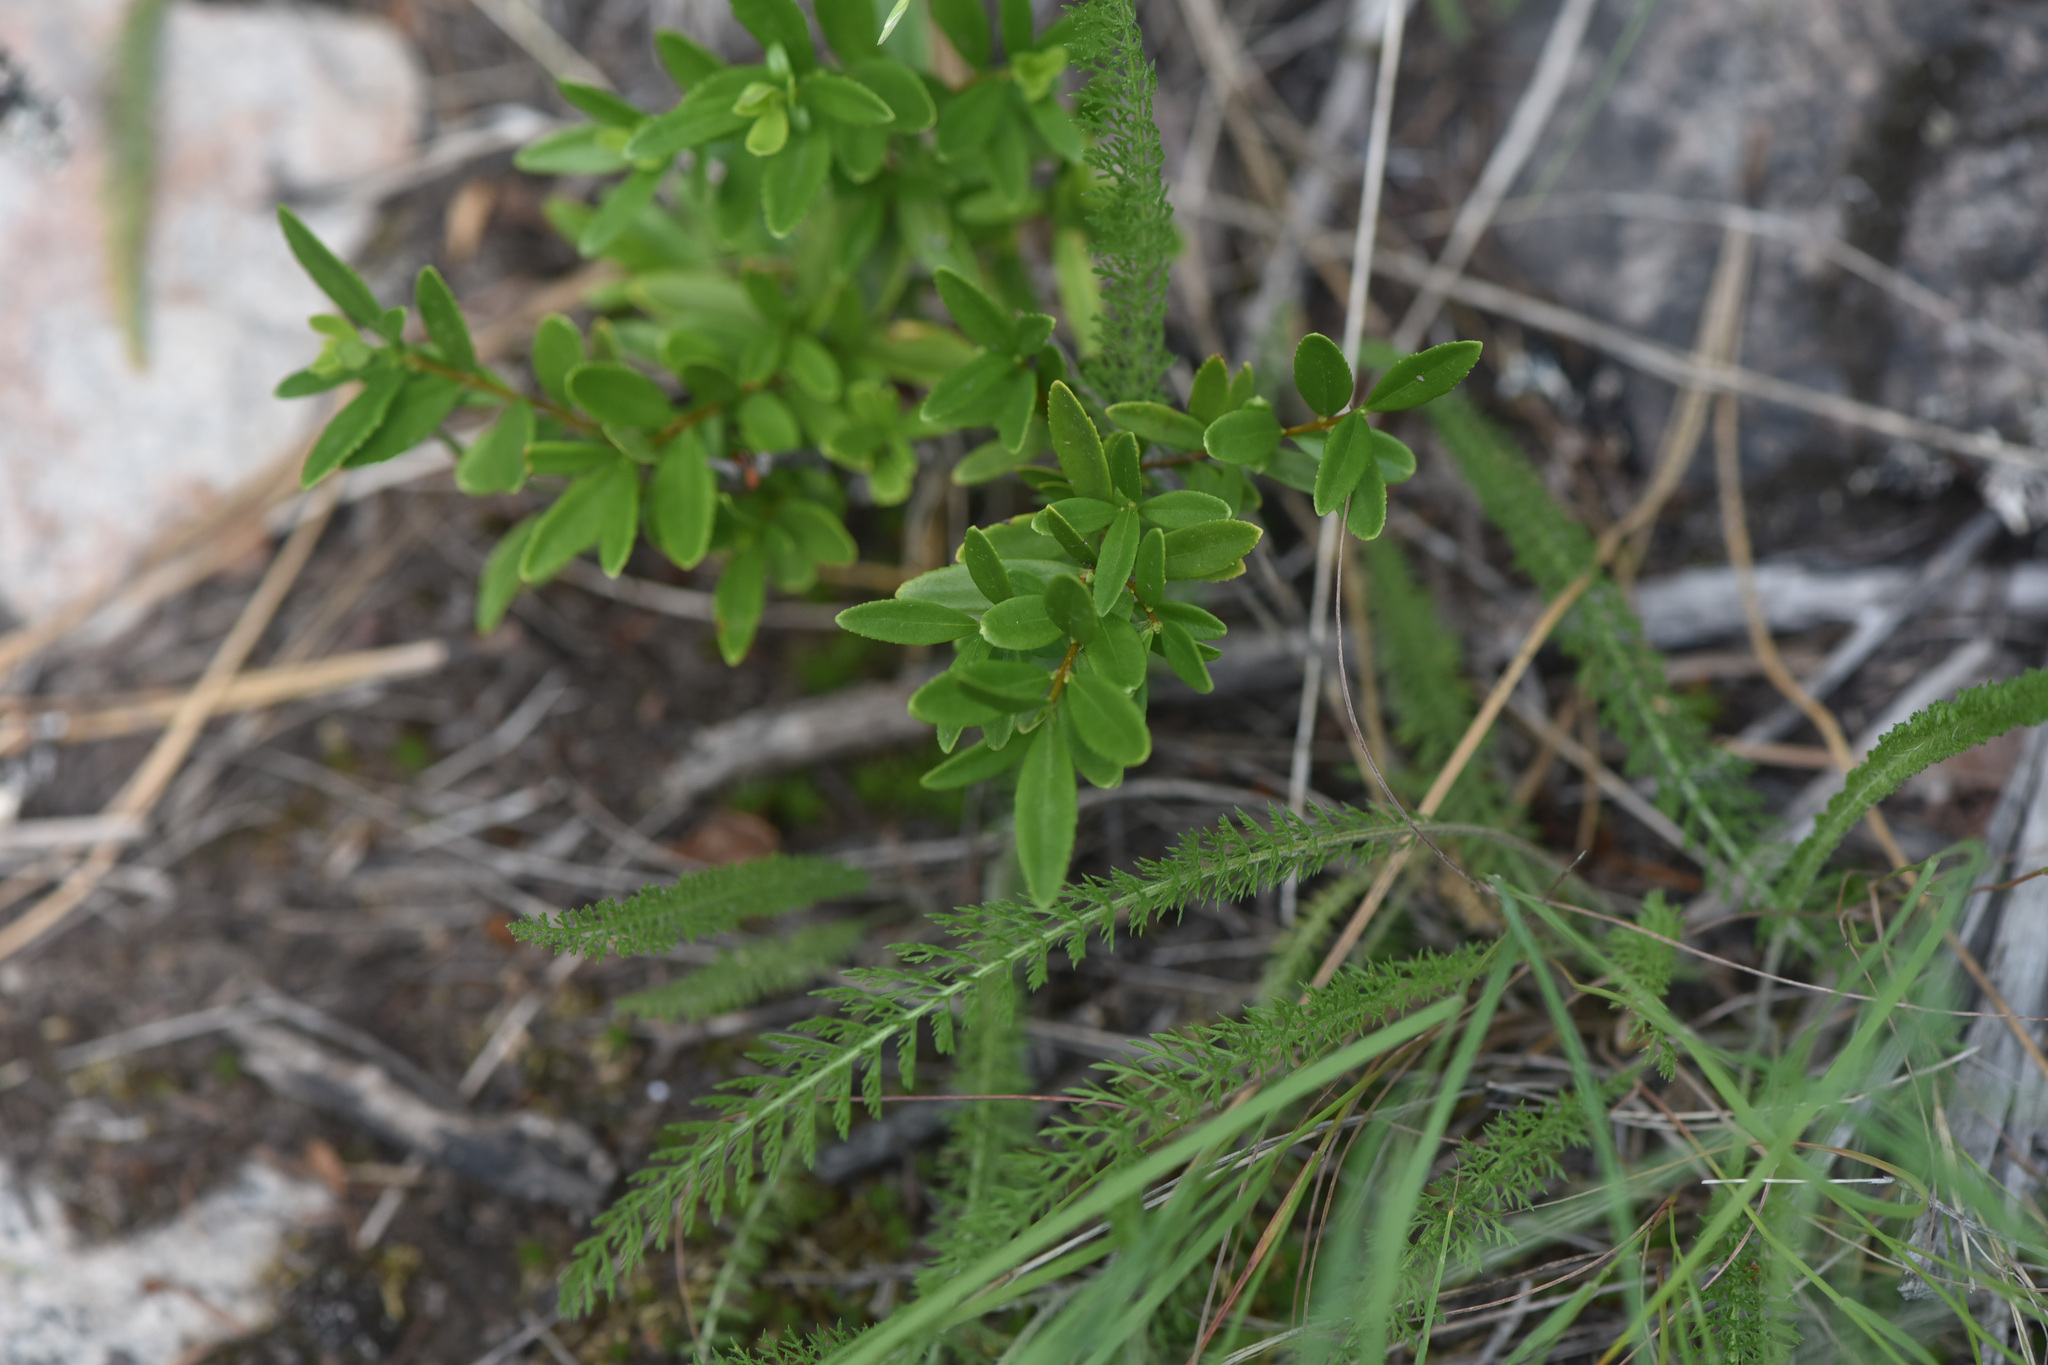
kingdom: Plantae
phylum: Tracheophyta
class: Magnoliopsida
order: Celastrales
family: Celastraceae
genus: Paxistima
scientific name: Paxistima myrsinites
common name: Mountain-lover
